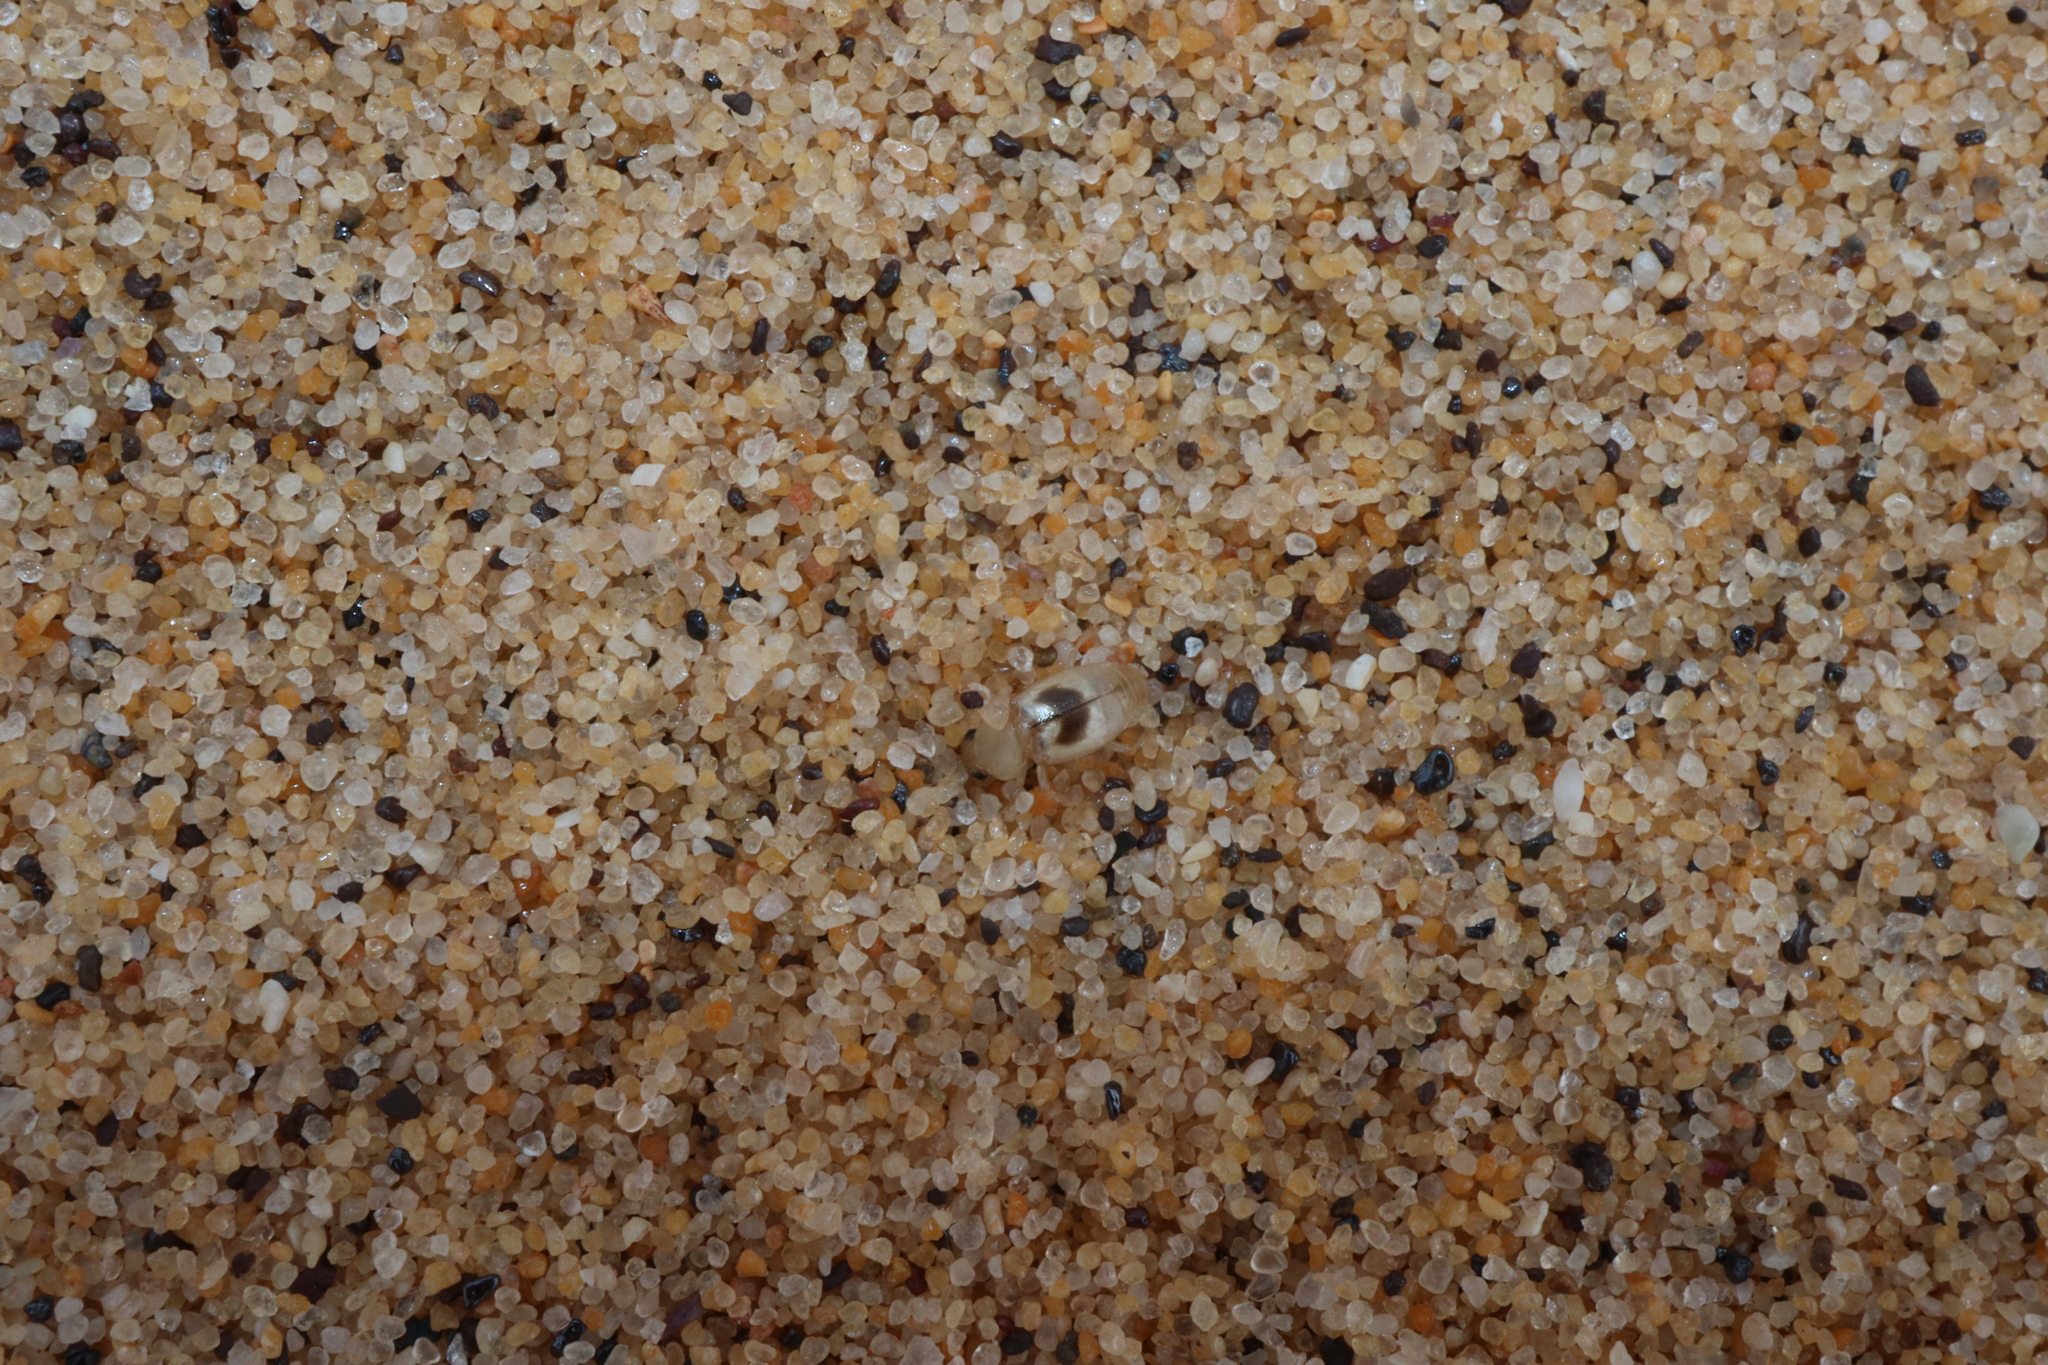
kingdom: Animalia
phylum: Arthropoda
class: Insecta
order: Coleoptera
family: Staphylinidae
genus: Sartallus
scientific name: Sartallus signatus
